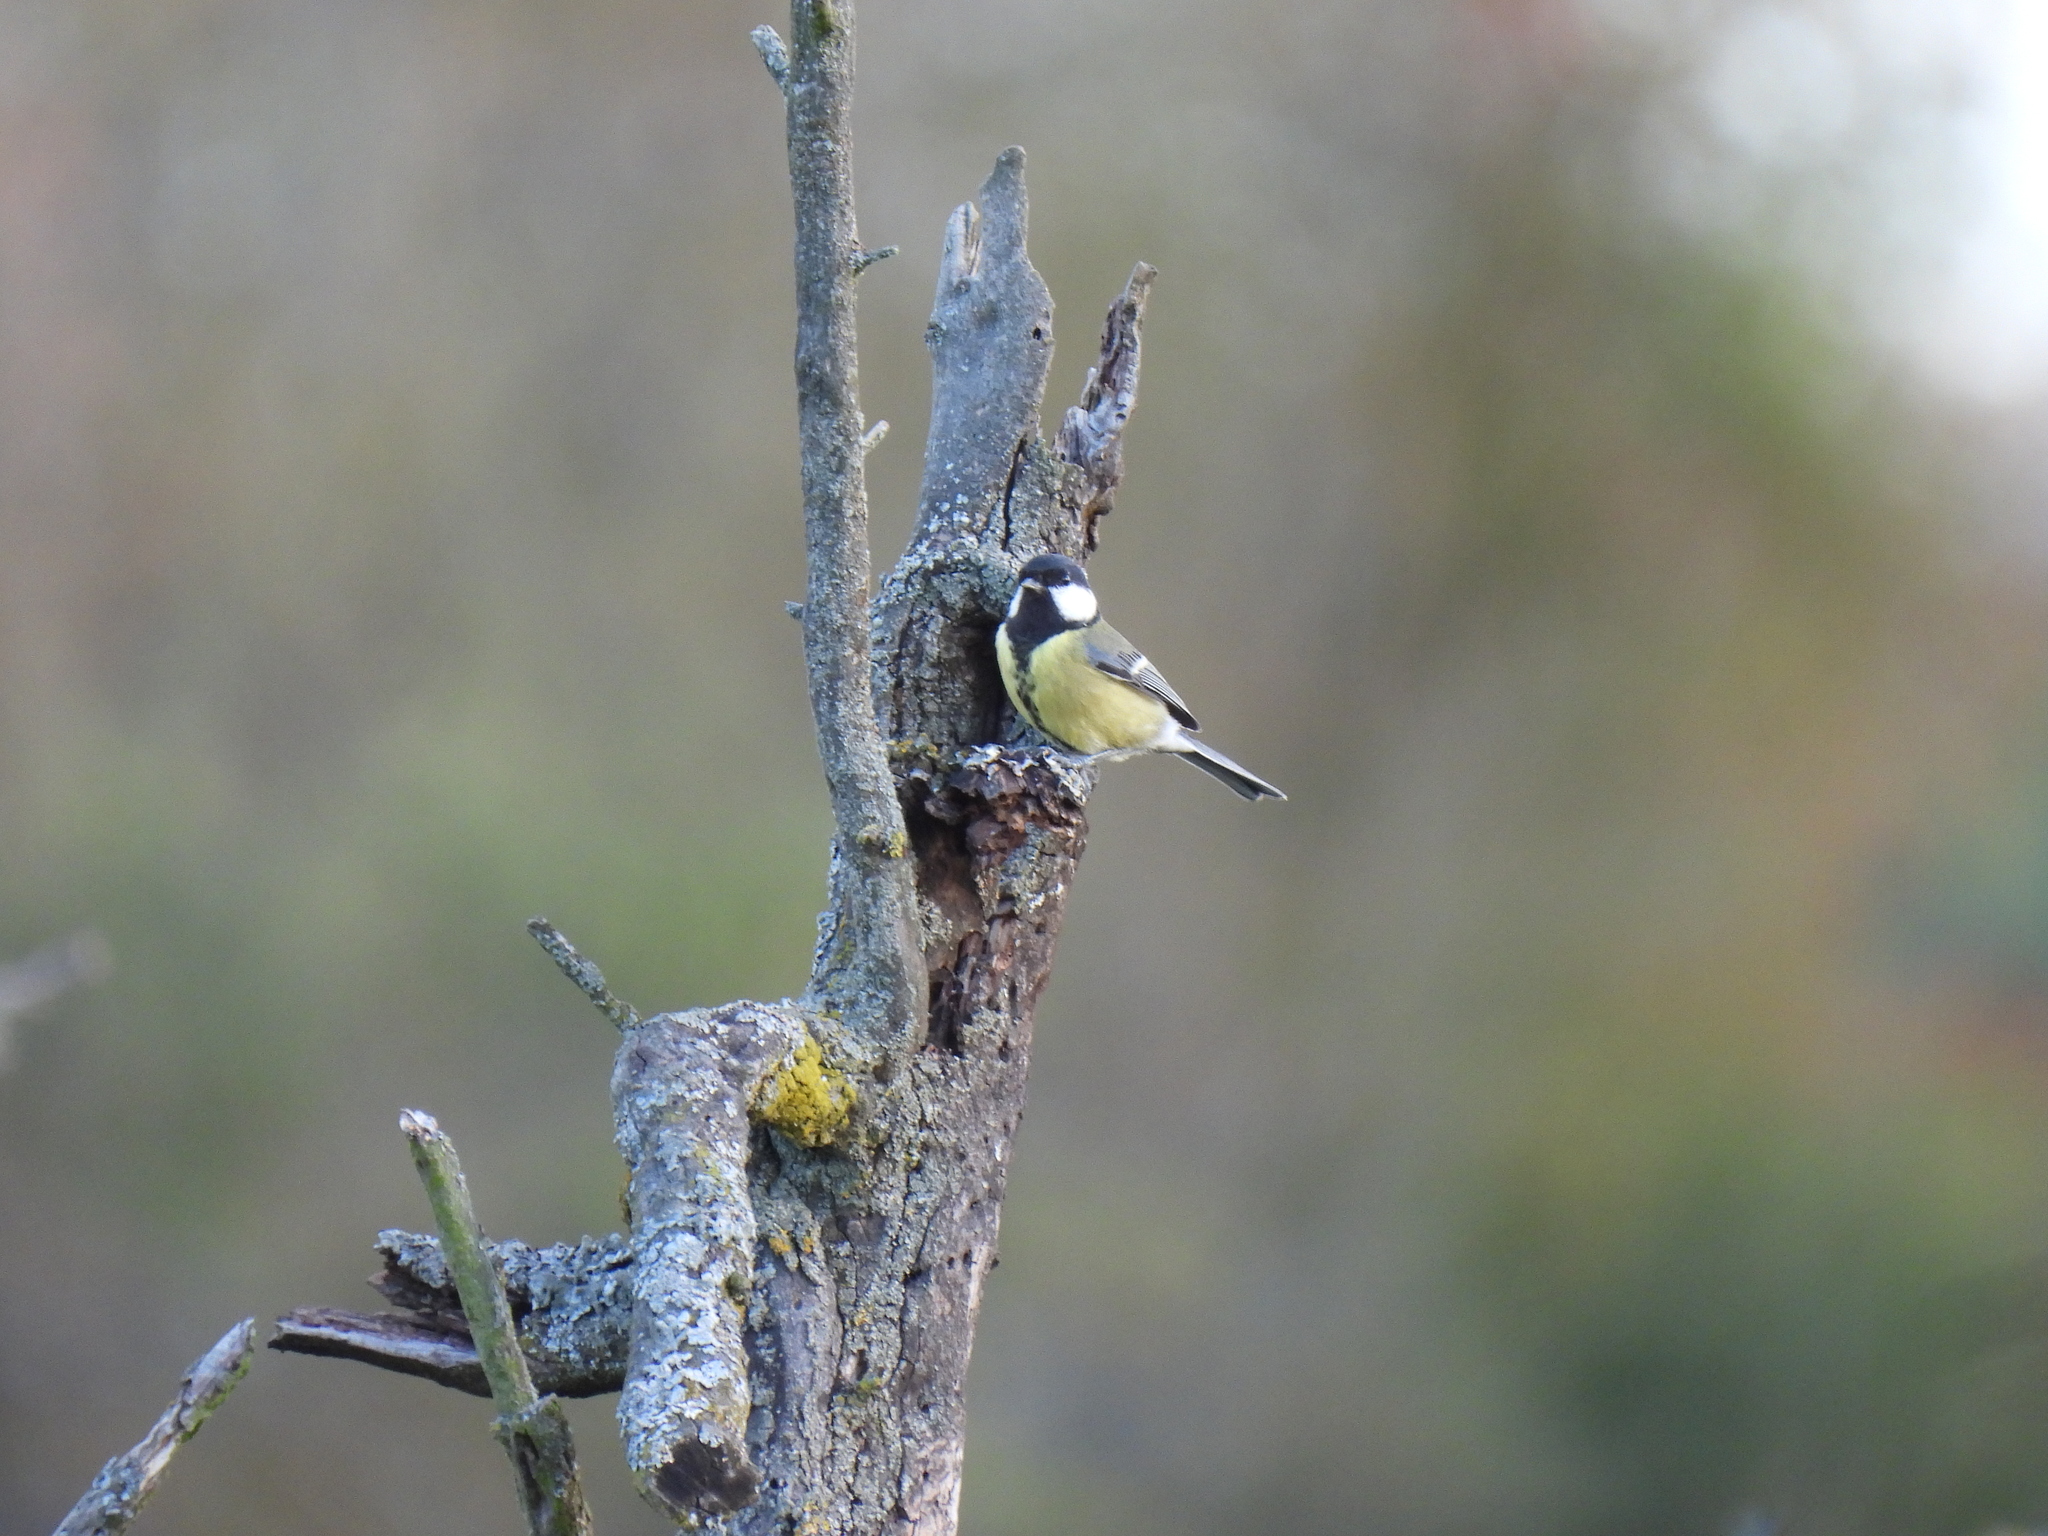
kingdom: Animalia
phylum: Chordata
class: Aves
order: Passeriformes
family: Paridae
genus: Parus
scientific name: Parus major
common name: Great tit
